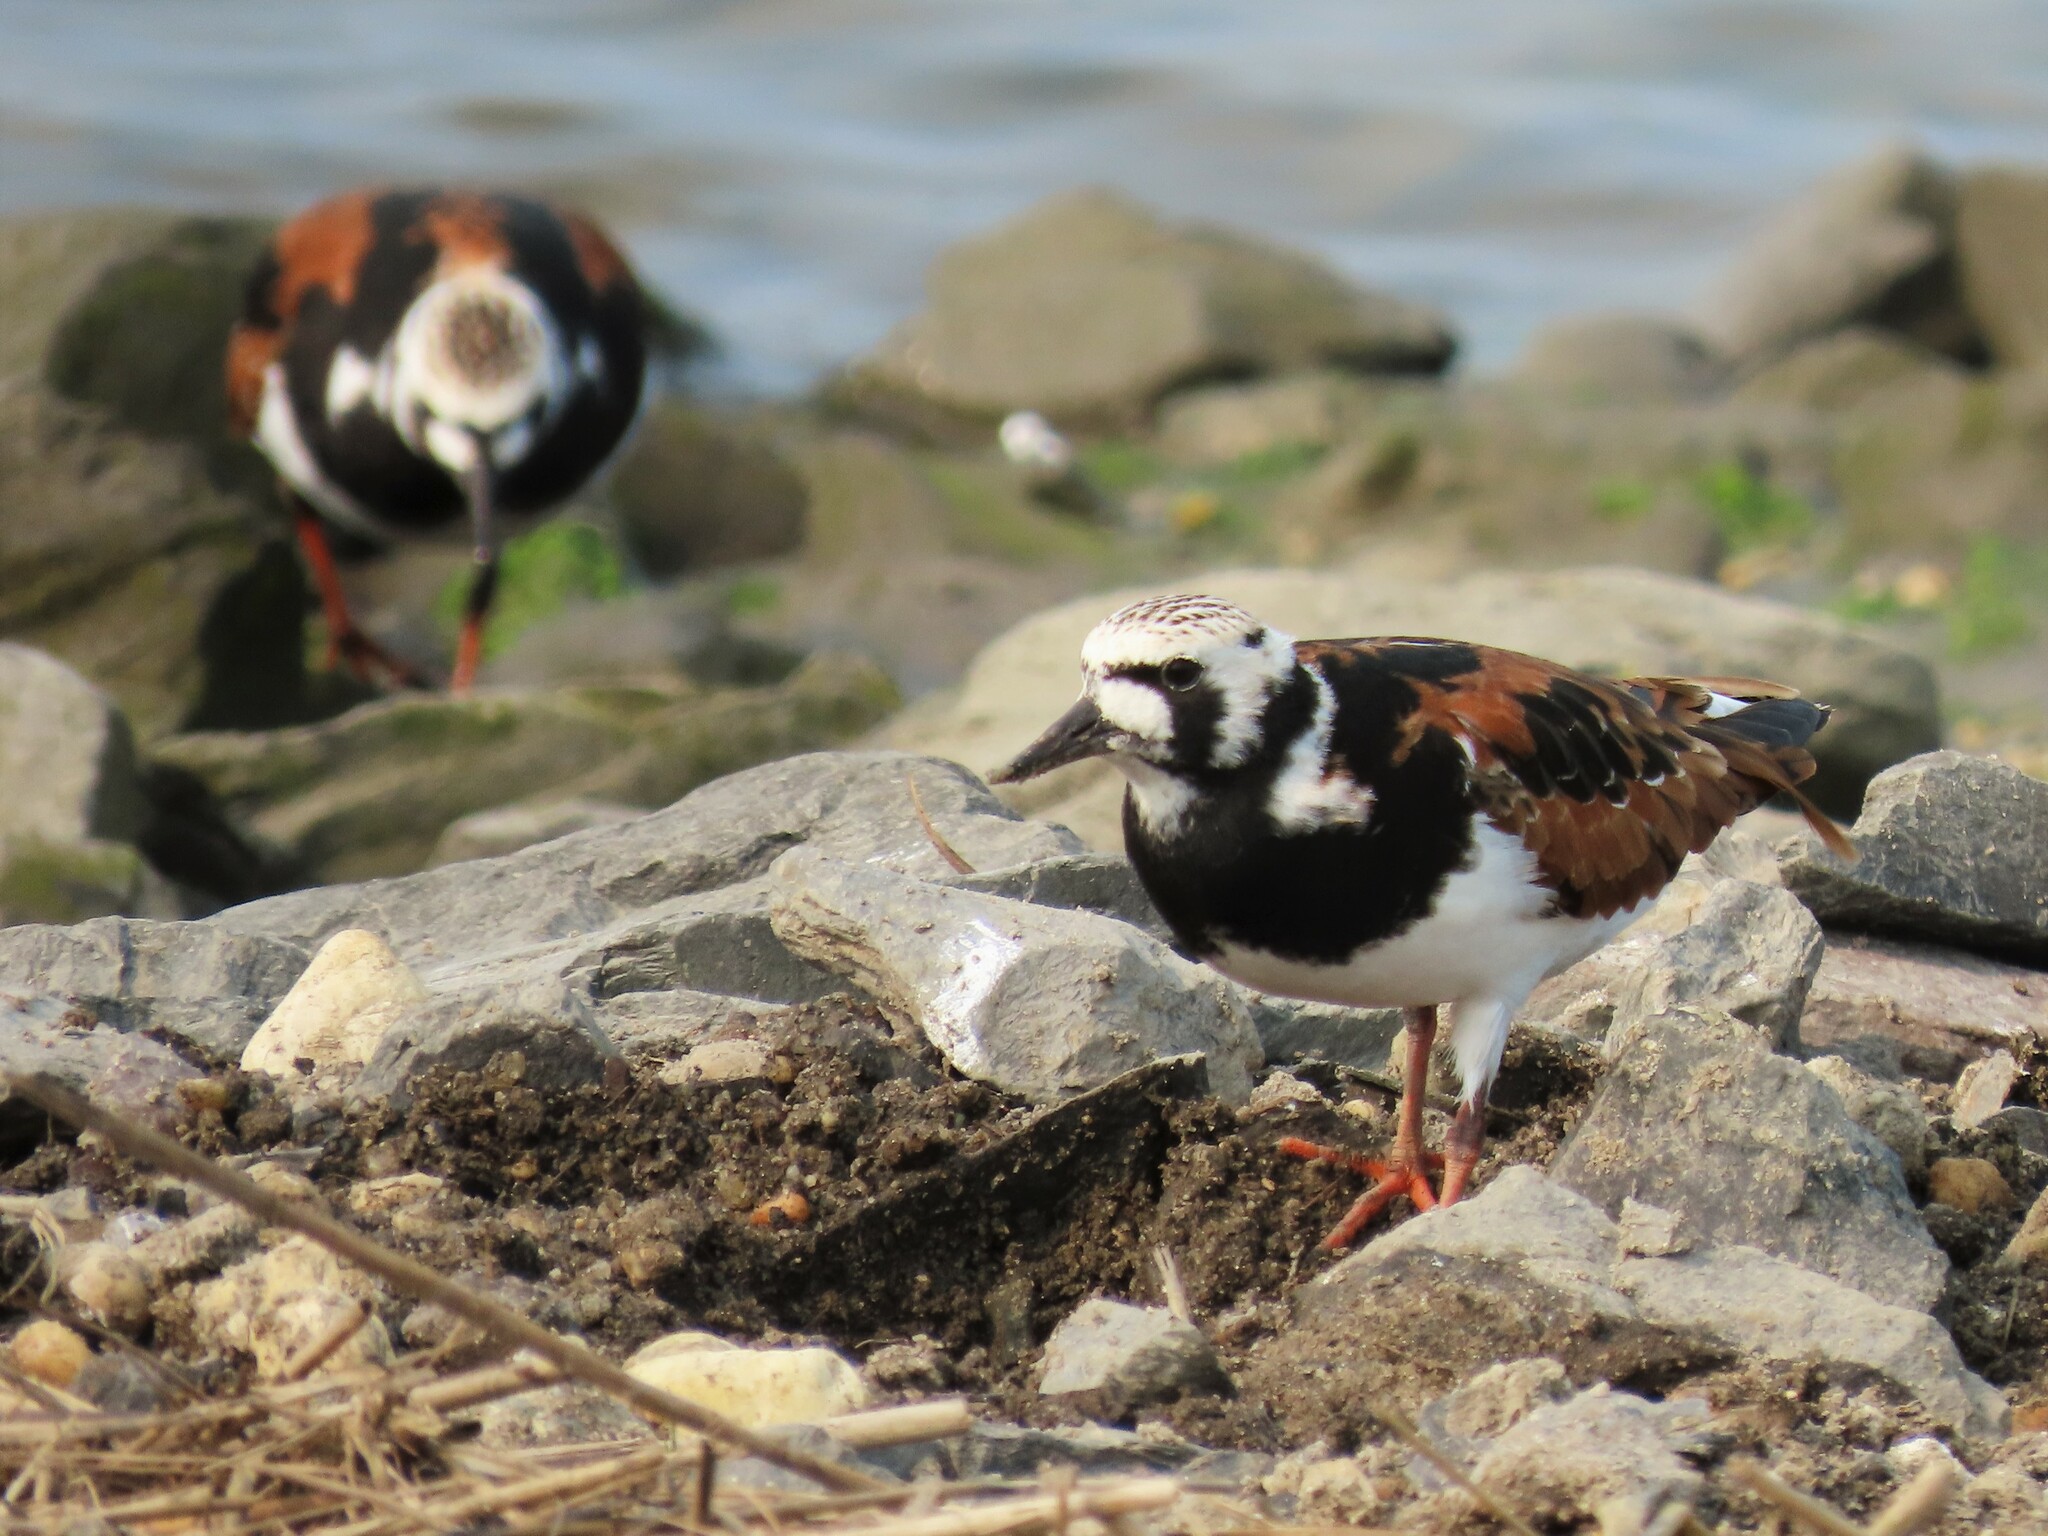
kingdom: Animalia
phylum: Chordata
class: Aves
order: Charadriiformes
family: Scolopacidae
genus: Arenaria
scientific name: Arenaria interpres
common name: Ruddy turnstone
